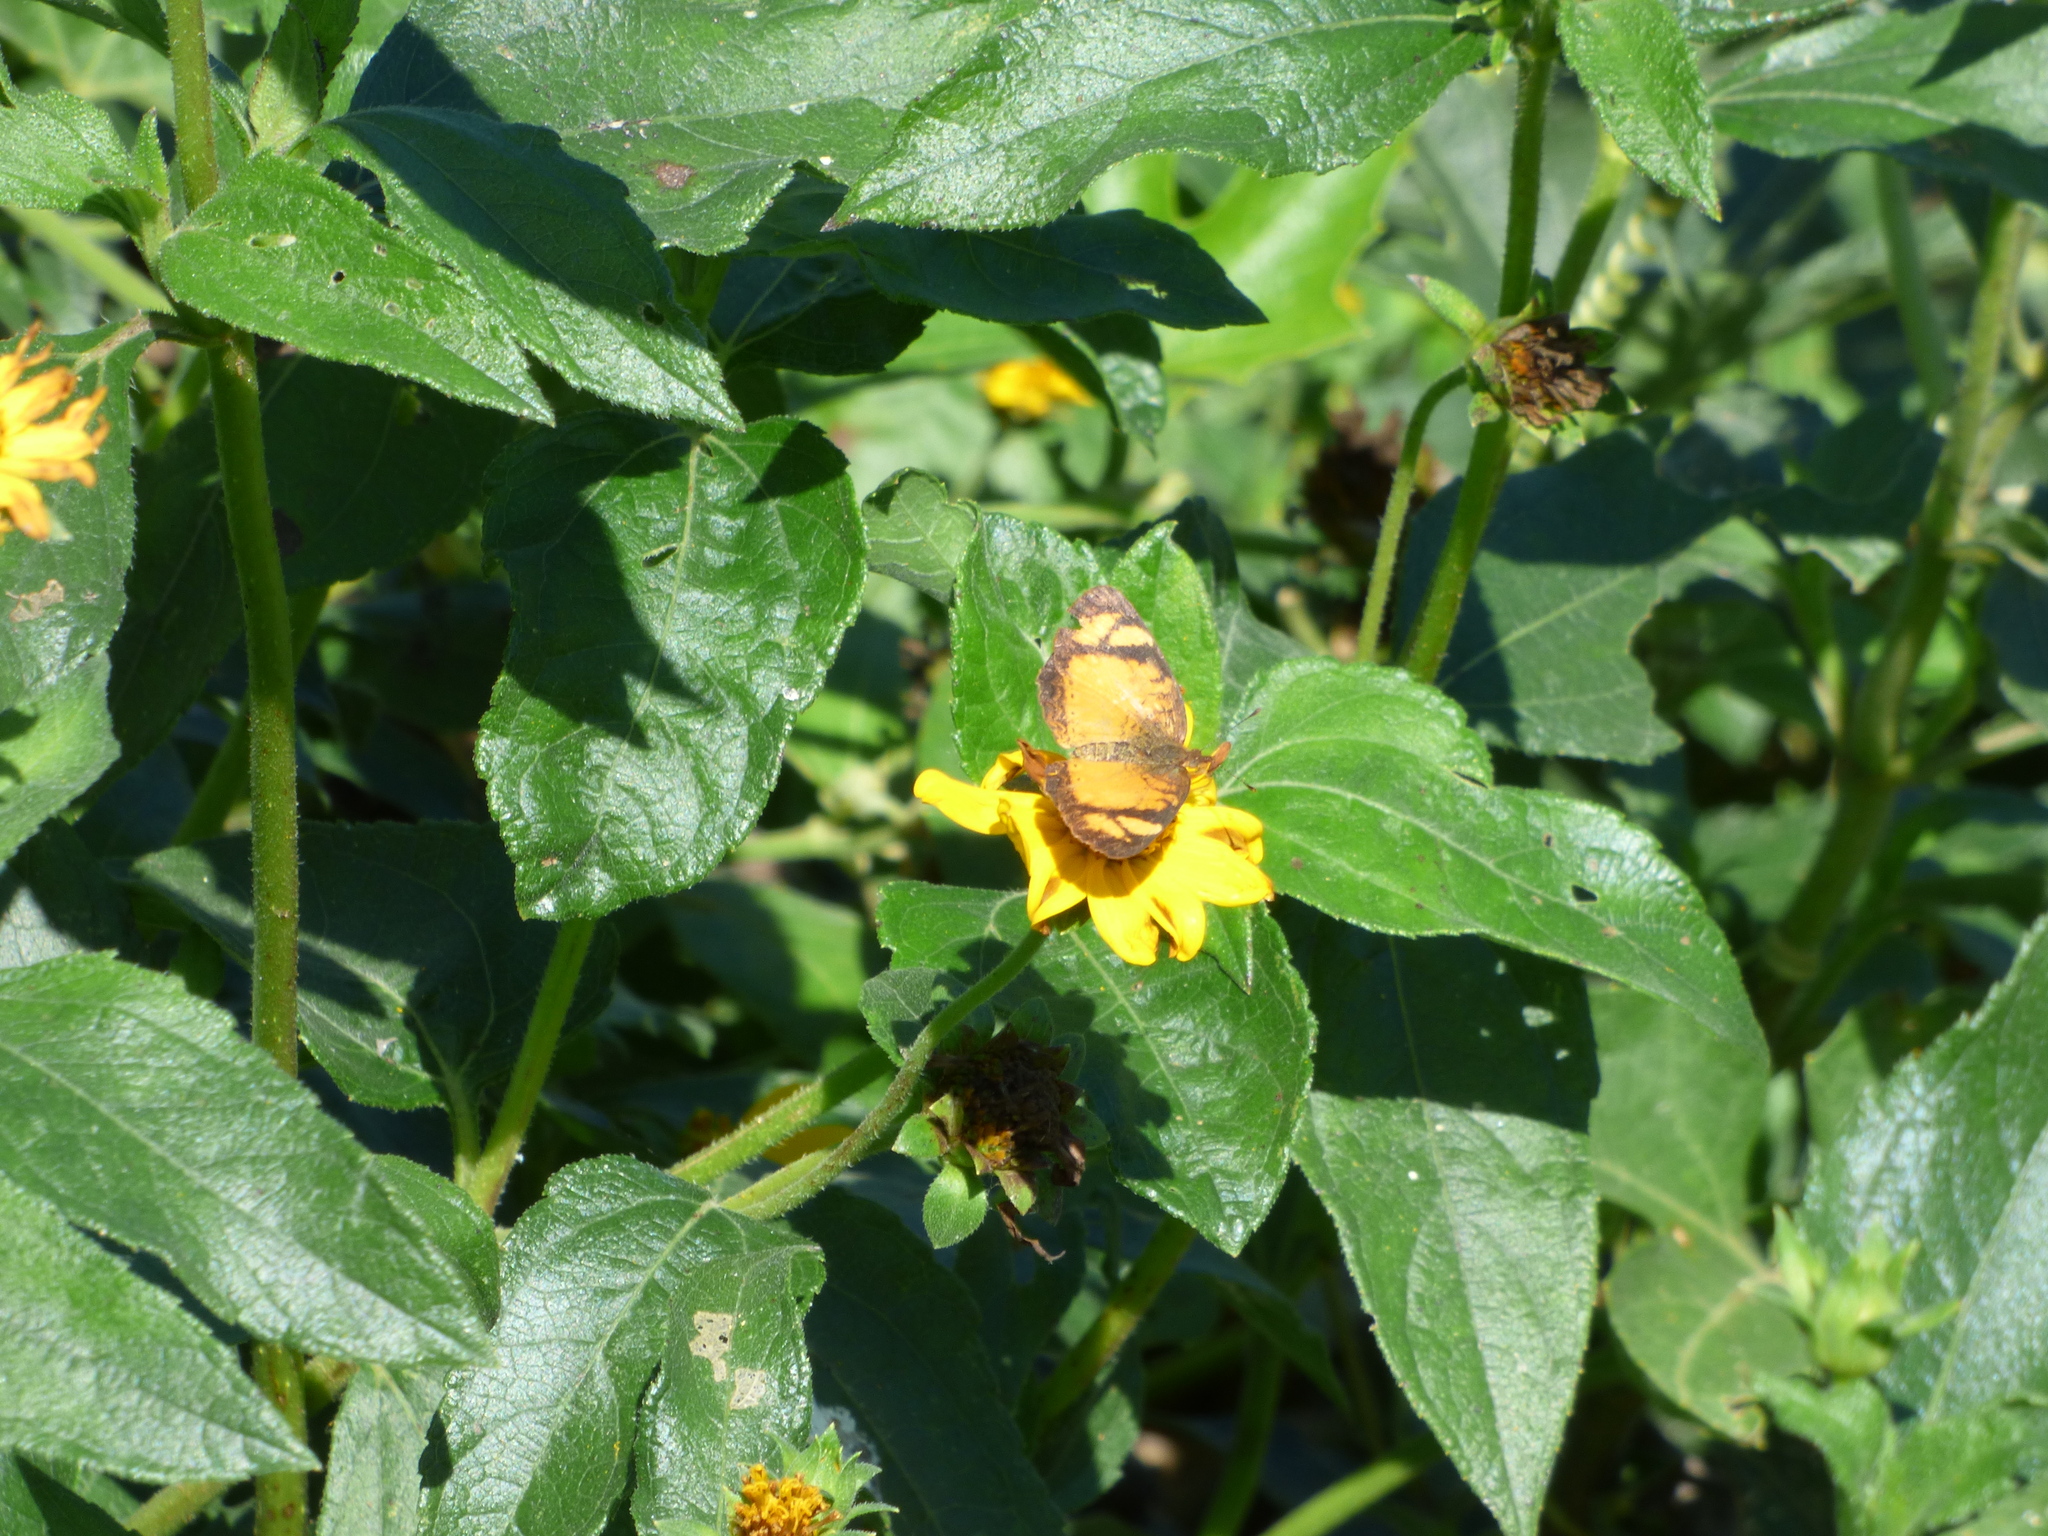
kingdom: Animalia
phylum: Arthropoda
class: Insecta
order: Lepidoptera
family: Nymphalidae
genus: Tegosa
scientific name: Tegosa claudina
